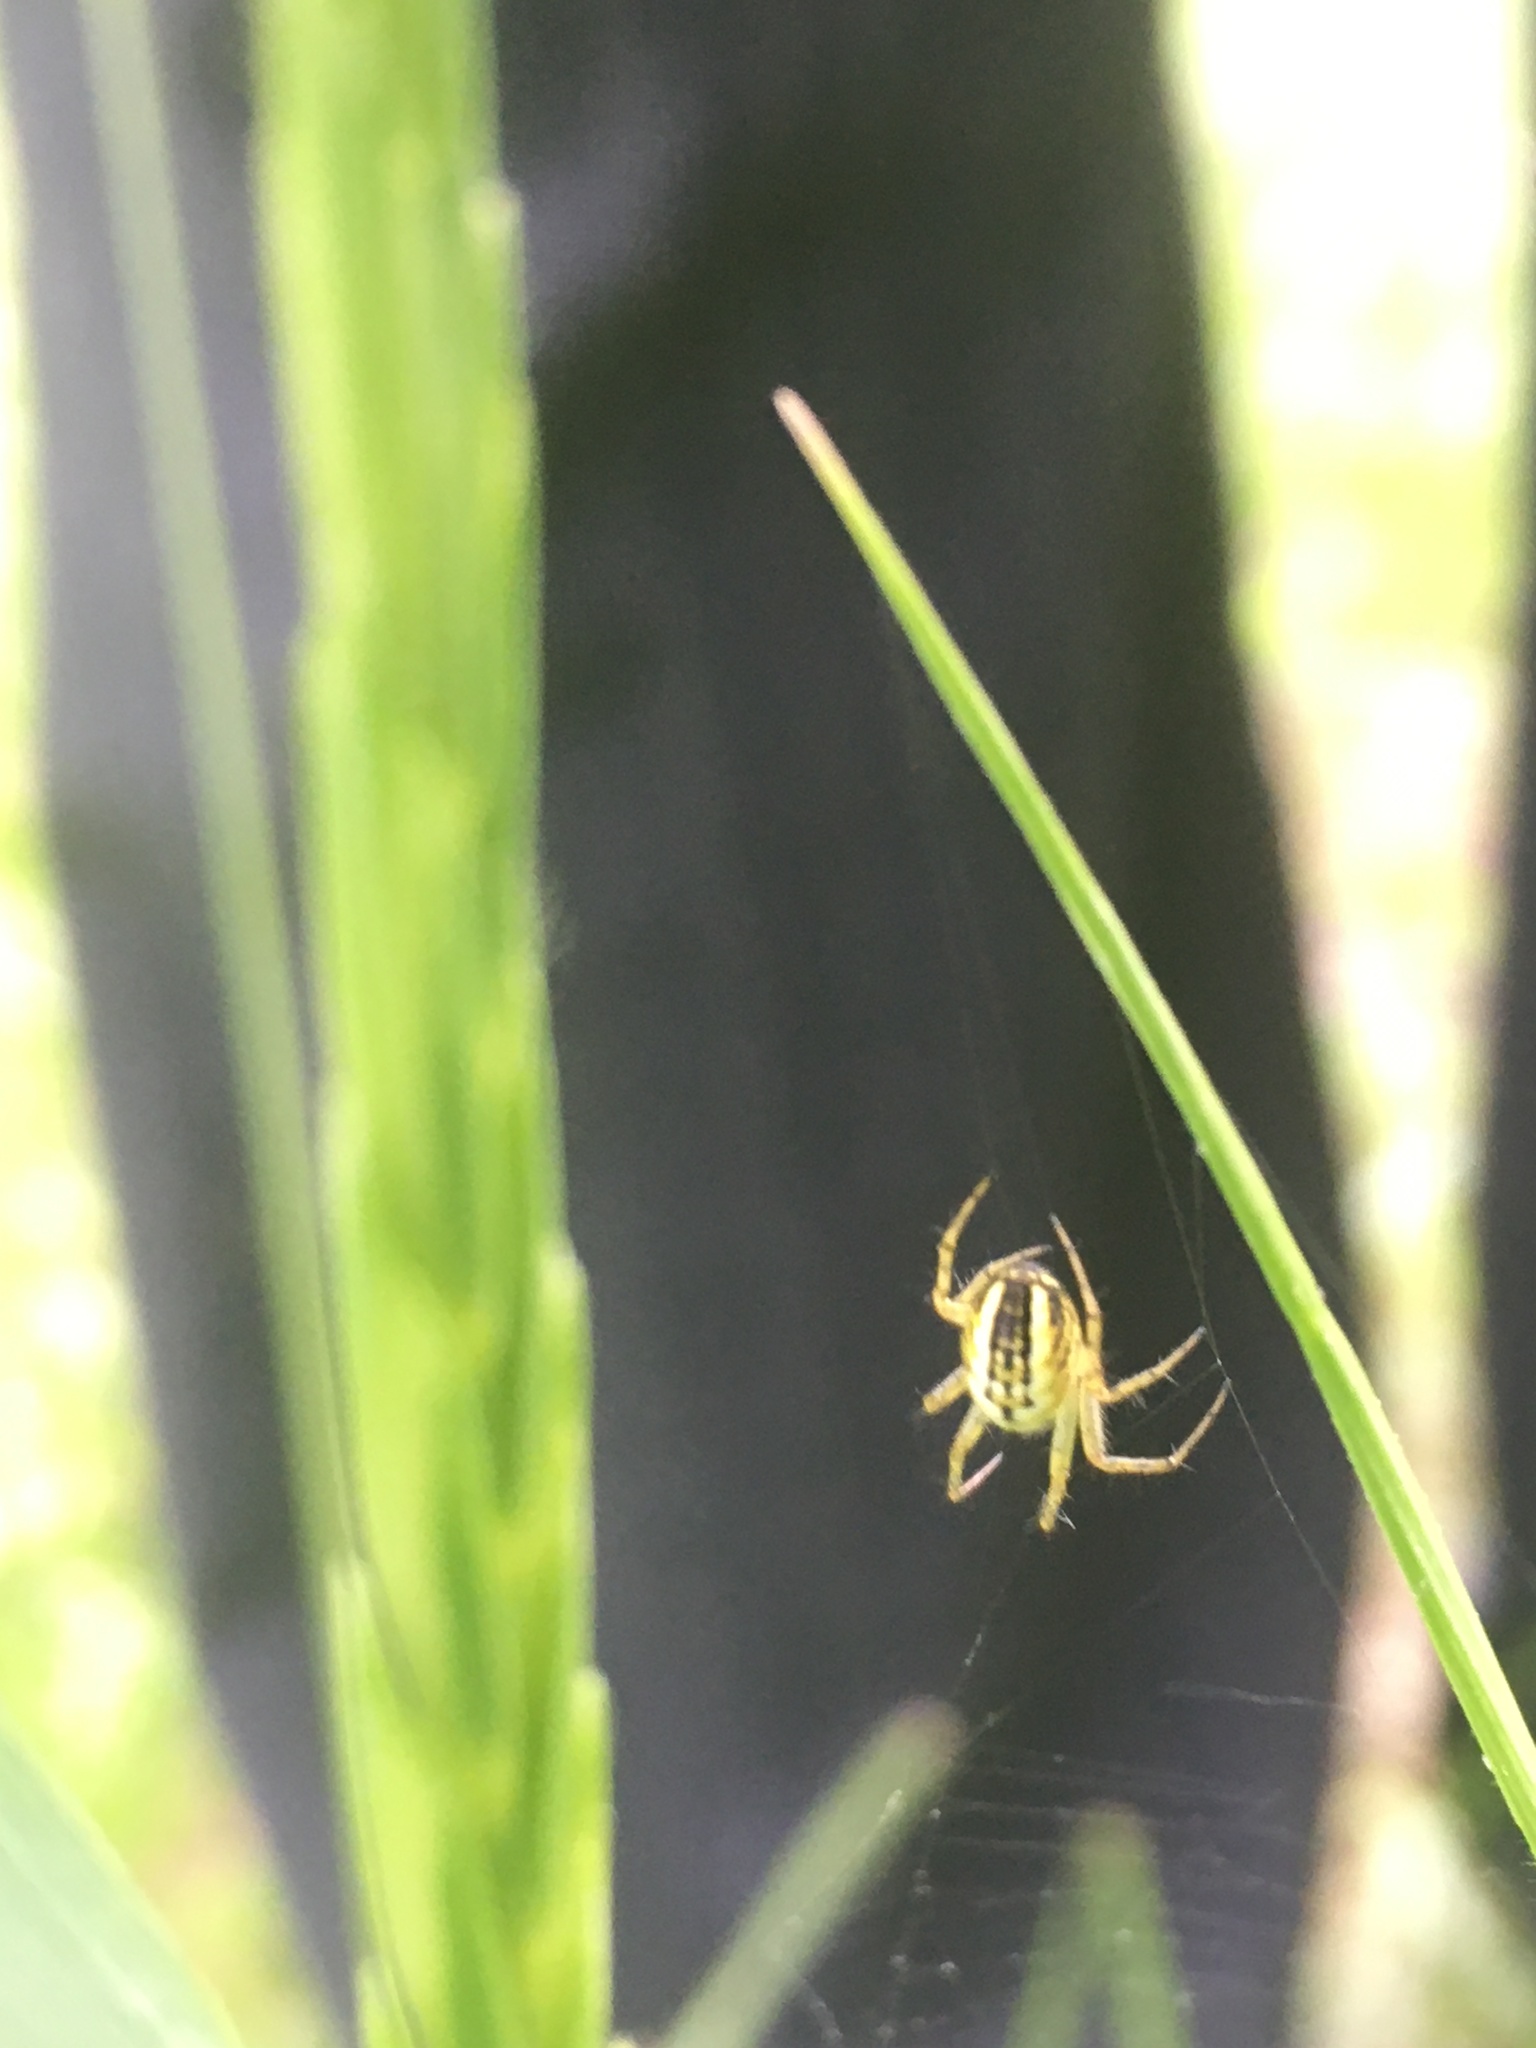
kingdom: Animalia
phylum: Arthropoda
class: Arachnida
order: Araneae
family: Araneidae
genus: Mangora
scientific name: Mangora acalypha
